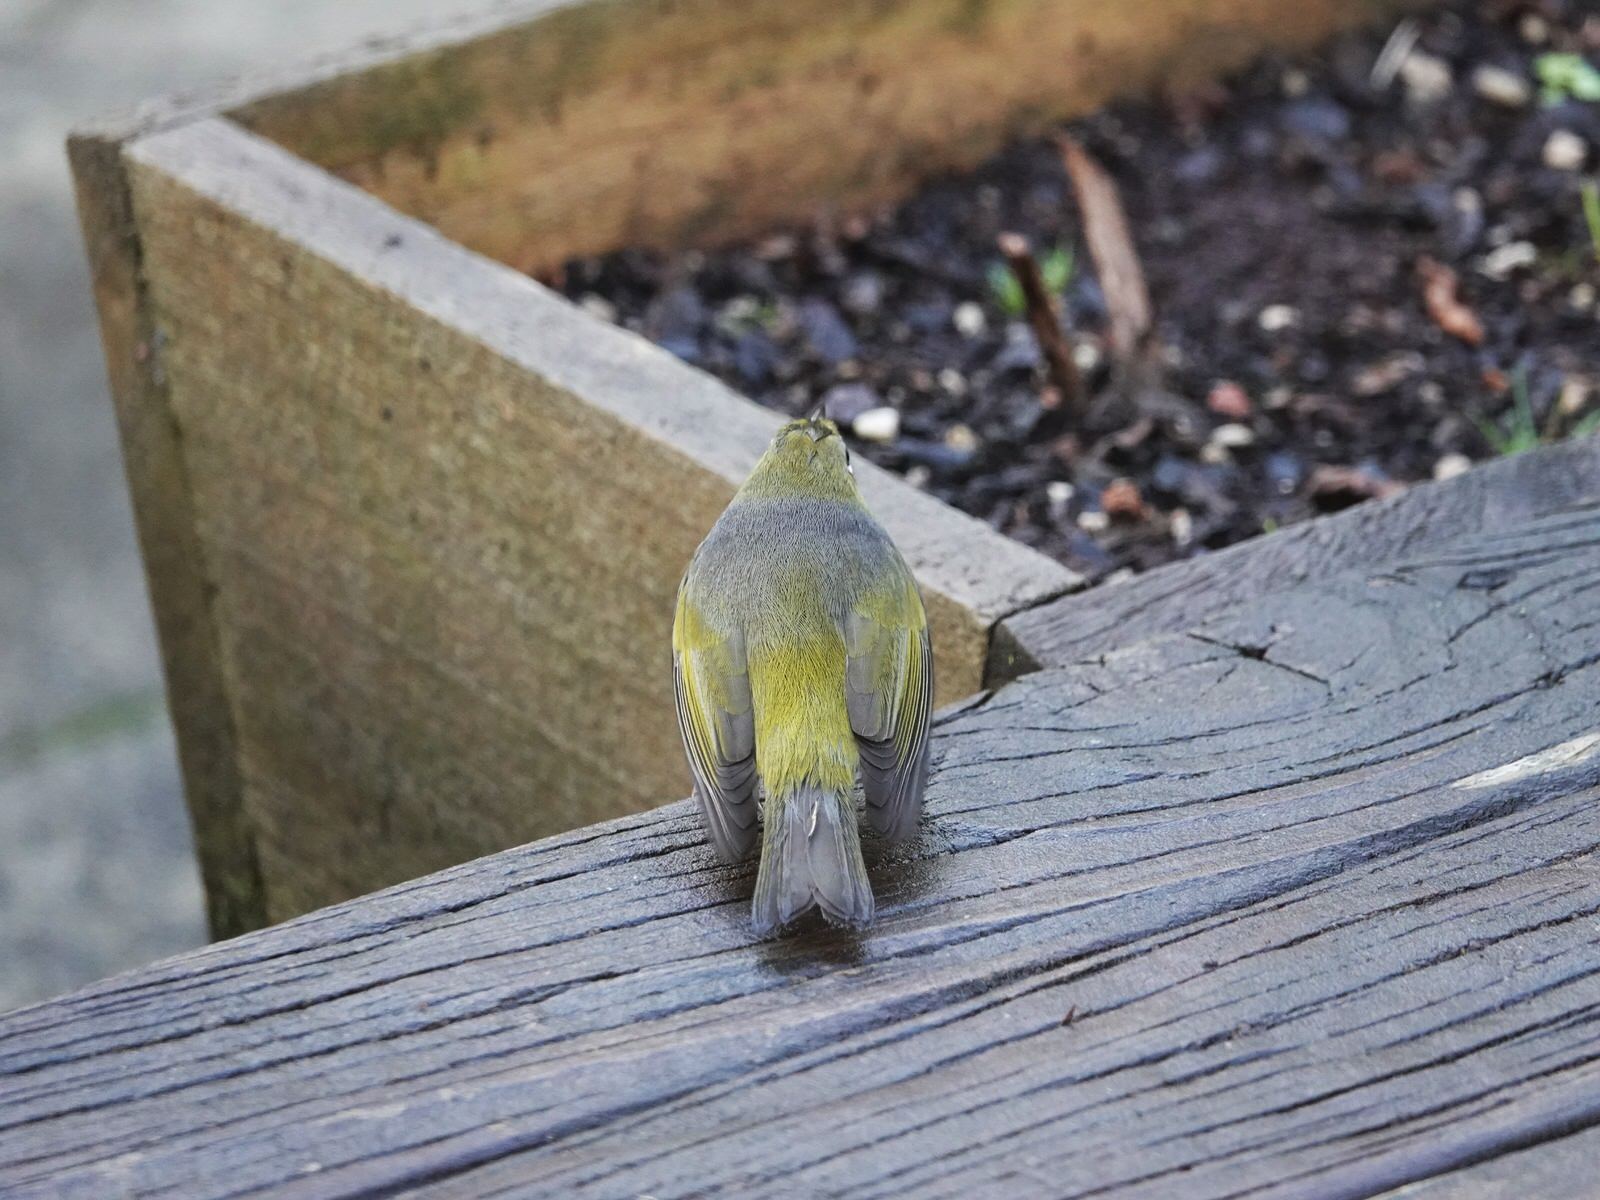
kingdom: Animalia
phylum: Chordata
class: Aves
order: Passeriformes
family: Zosteropidae
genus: Zosterops
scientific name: Zosterops lateralis
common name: Silvereye
